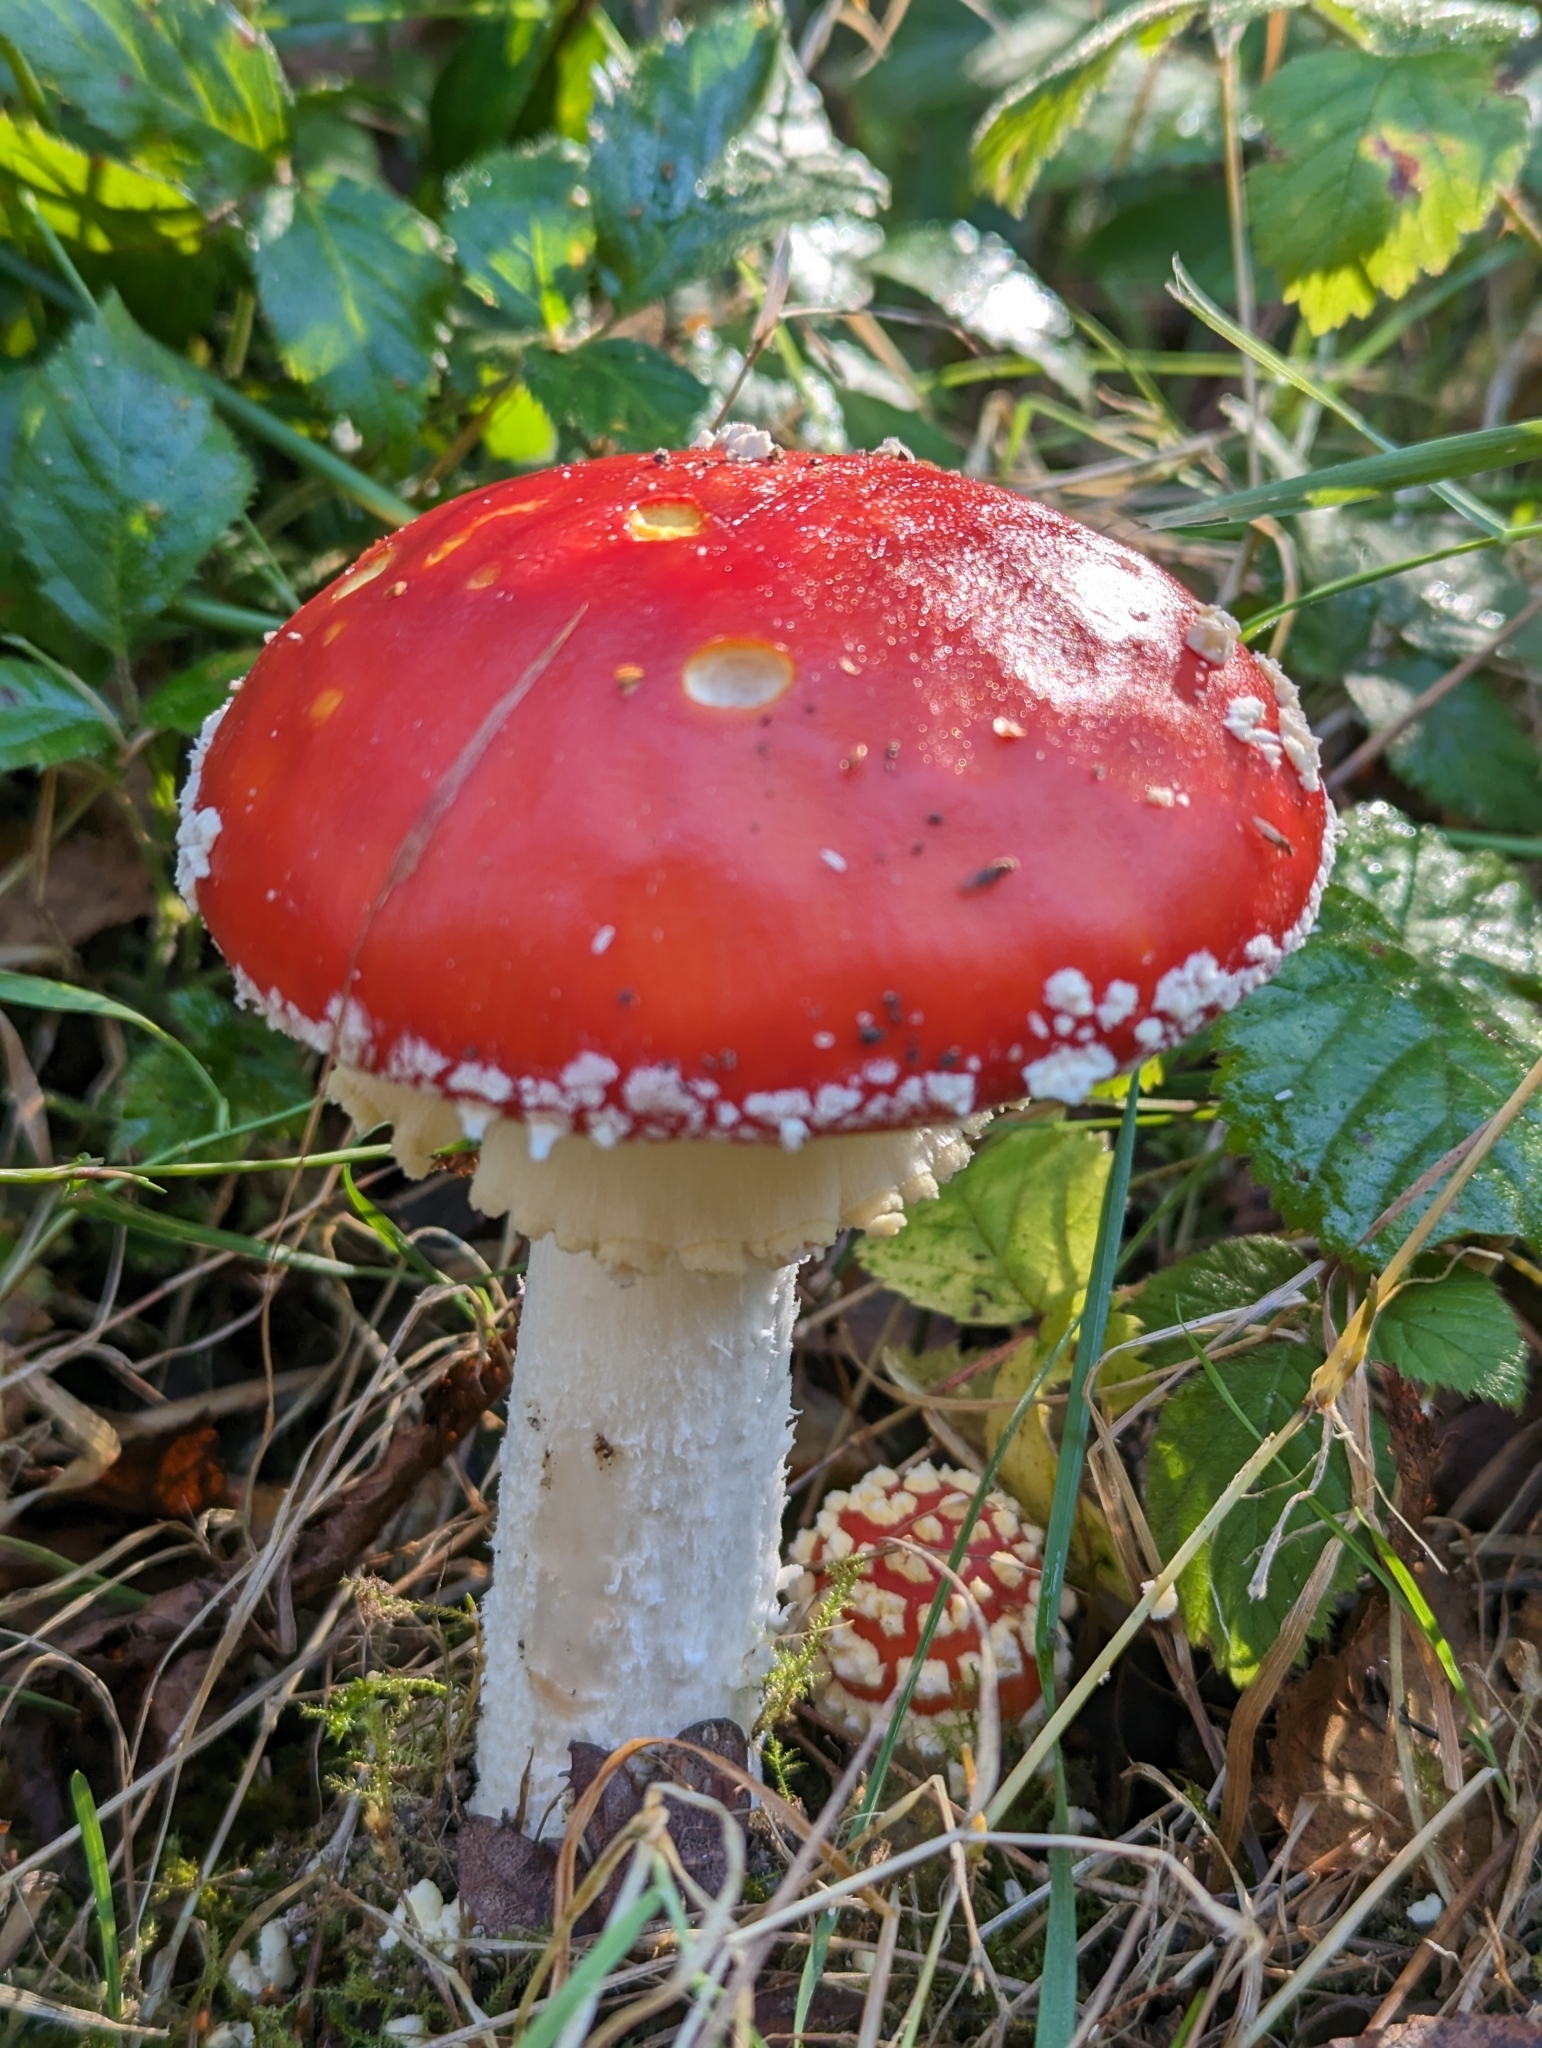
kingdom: Fungi
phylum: Basidiomycota
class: Agaricomycetes
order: Agaricales
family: Amanitaceae
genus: Amanita
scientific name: Amanita muscaria
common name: Fly agaric
